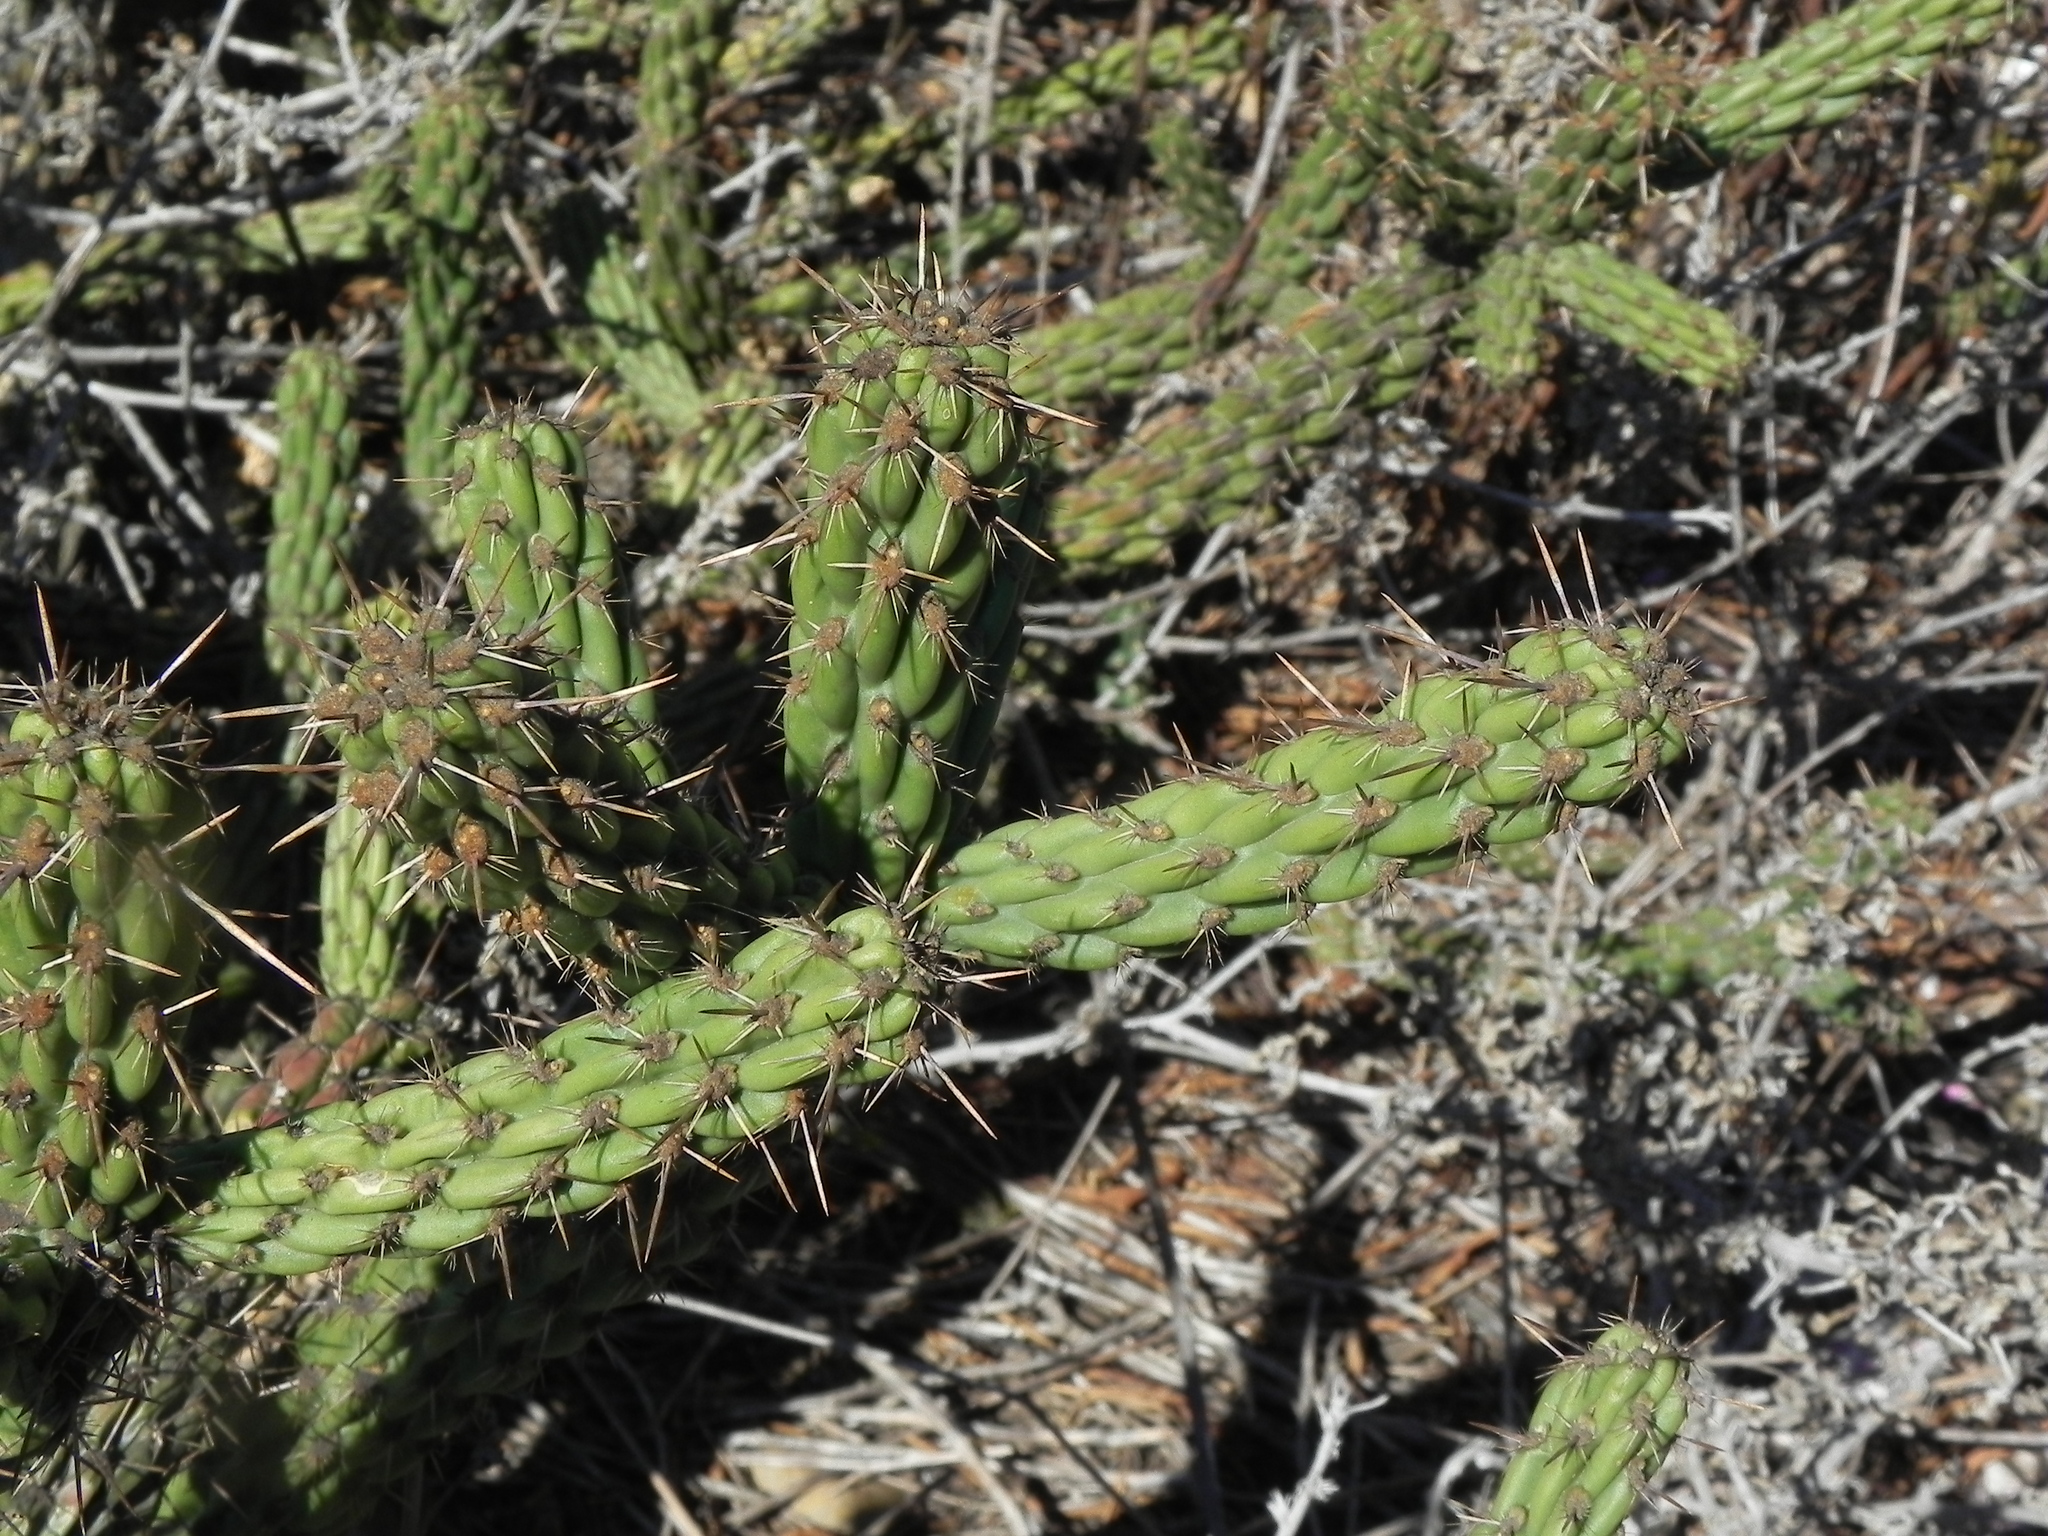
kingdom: Plantae
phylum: Tracheophyta
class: Magnoliopsida
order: Caryophyllales
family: Cactaceae
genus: Cylindropuntia
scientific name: Cylindropuntia californica
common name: Snake cholla
